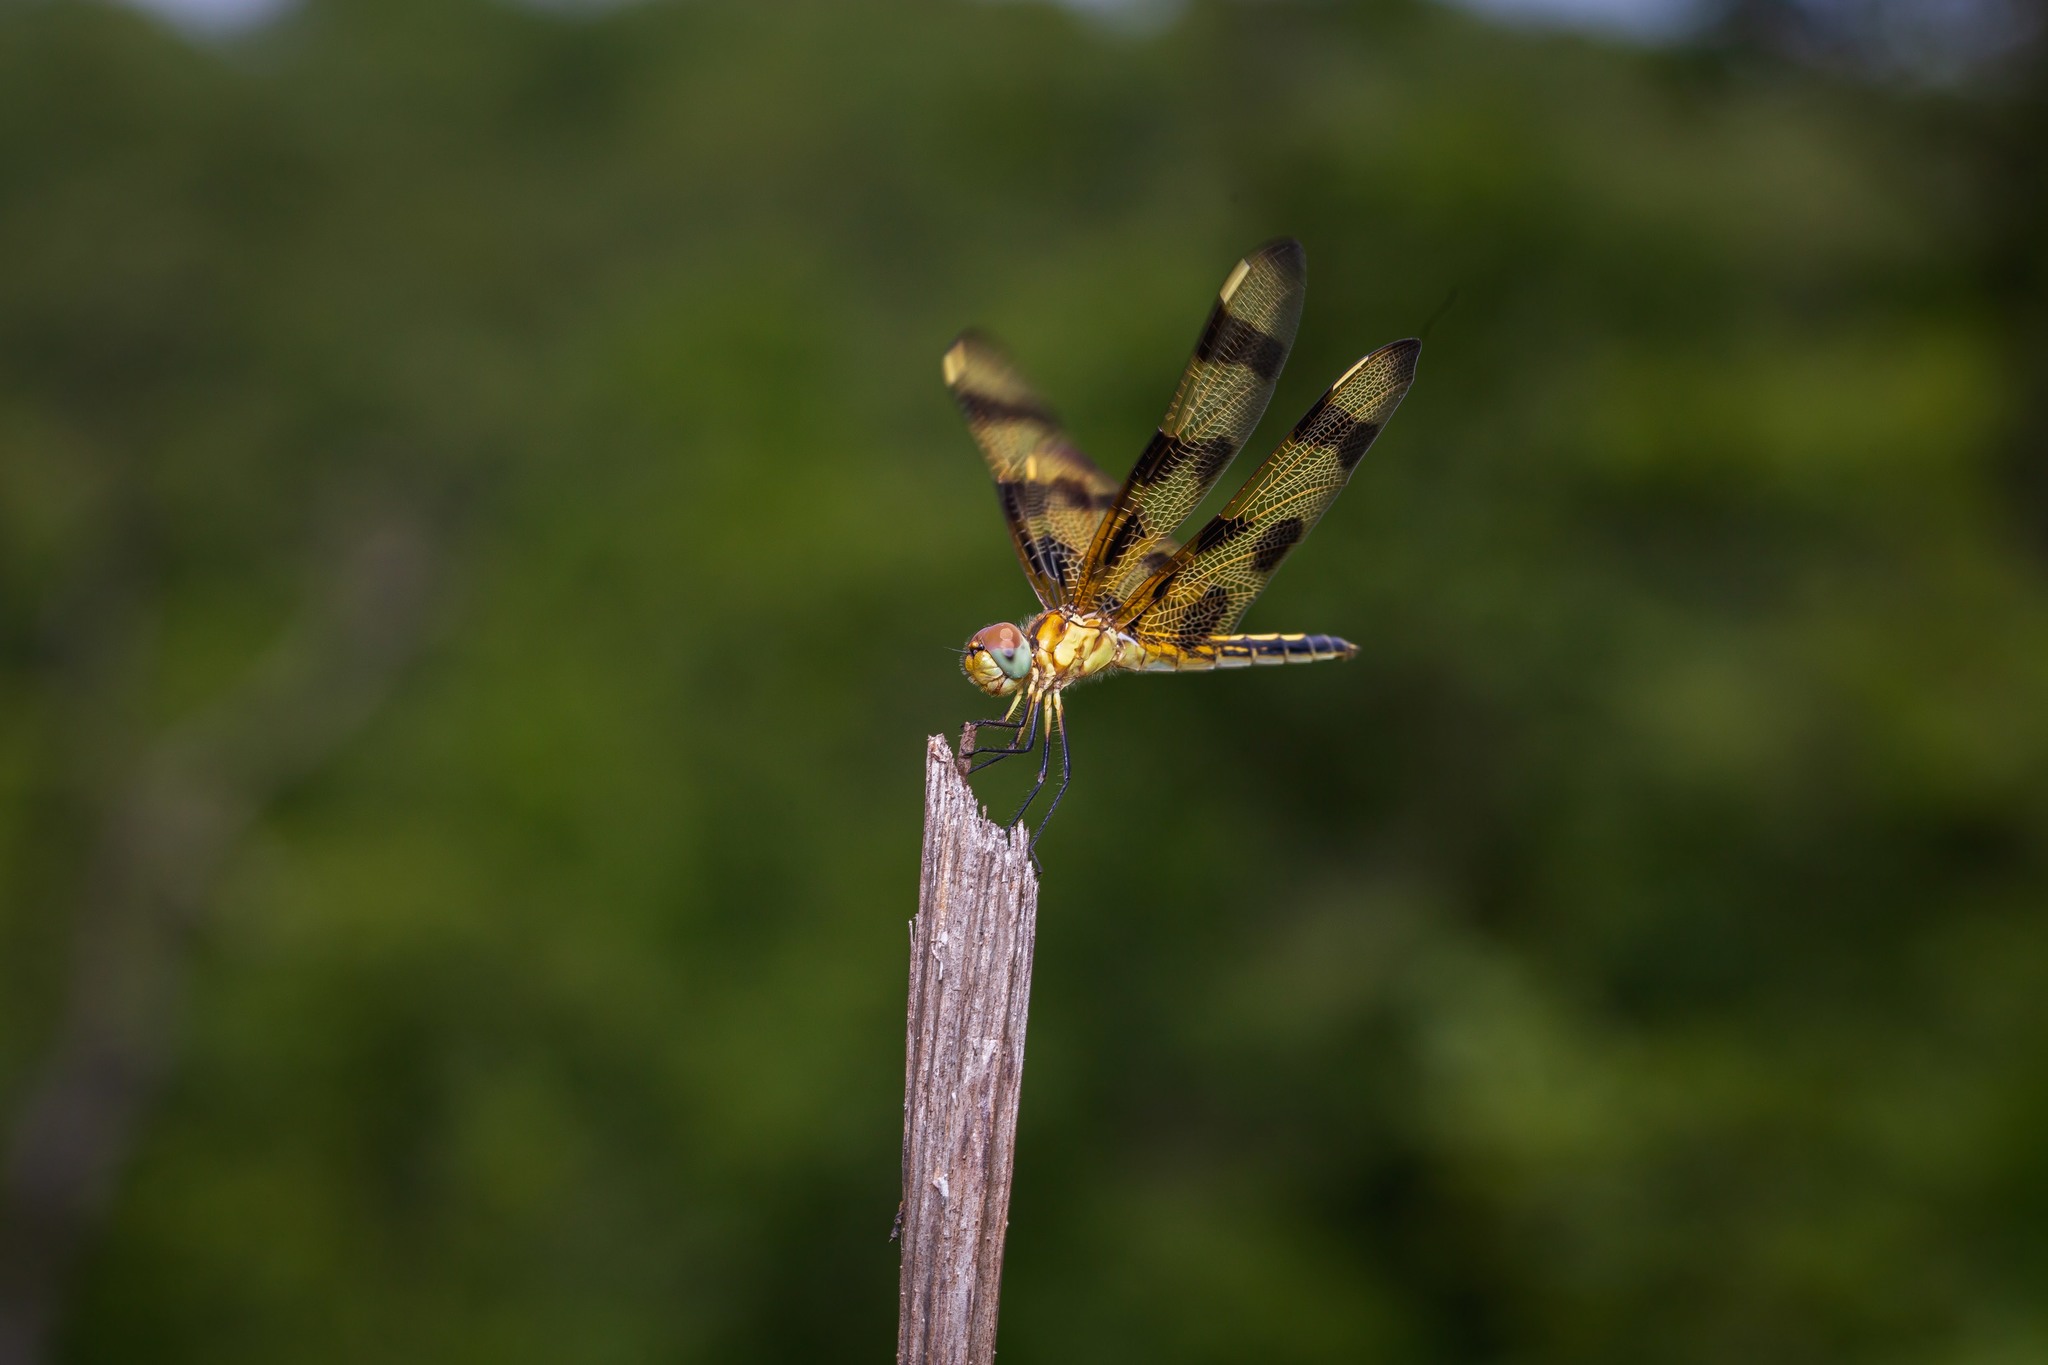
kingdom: Animalia
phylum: Arthropoda
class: Insecta
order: Odonata
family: Libellulidae
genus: Celithemis
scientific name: Celithemis eponina
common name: Halloween pennant
